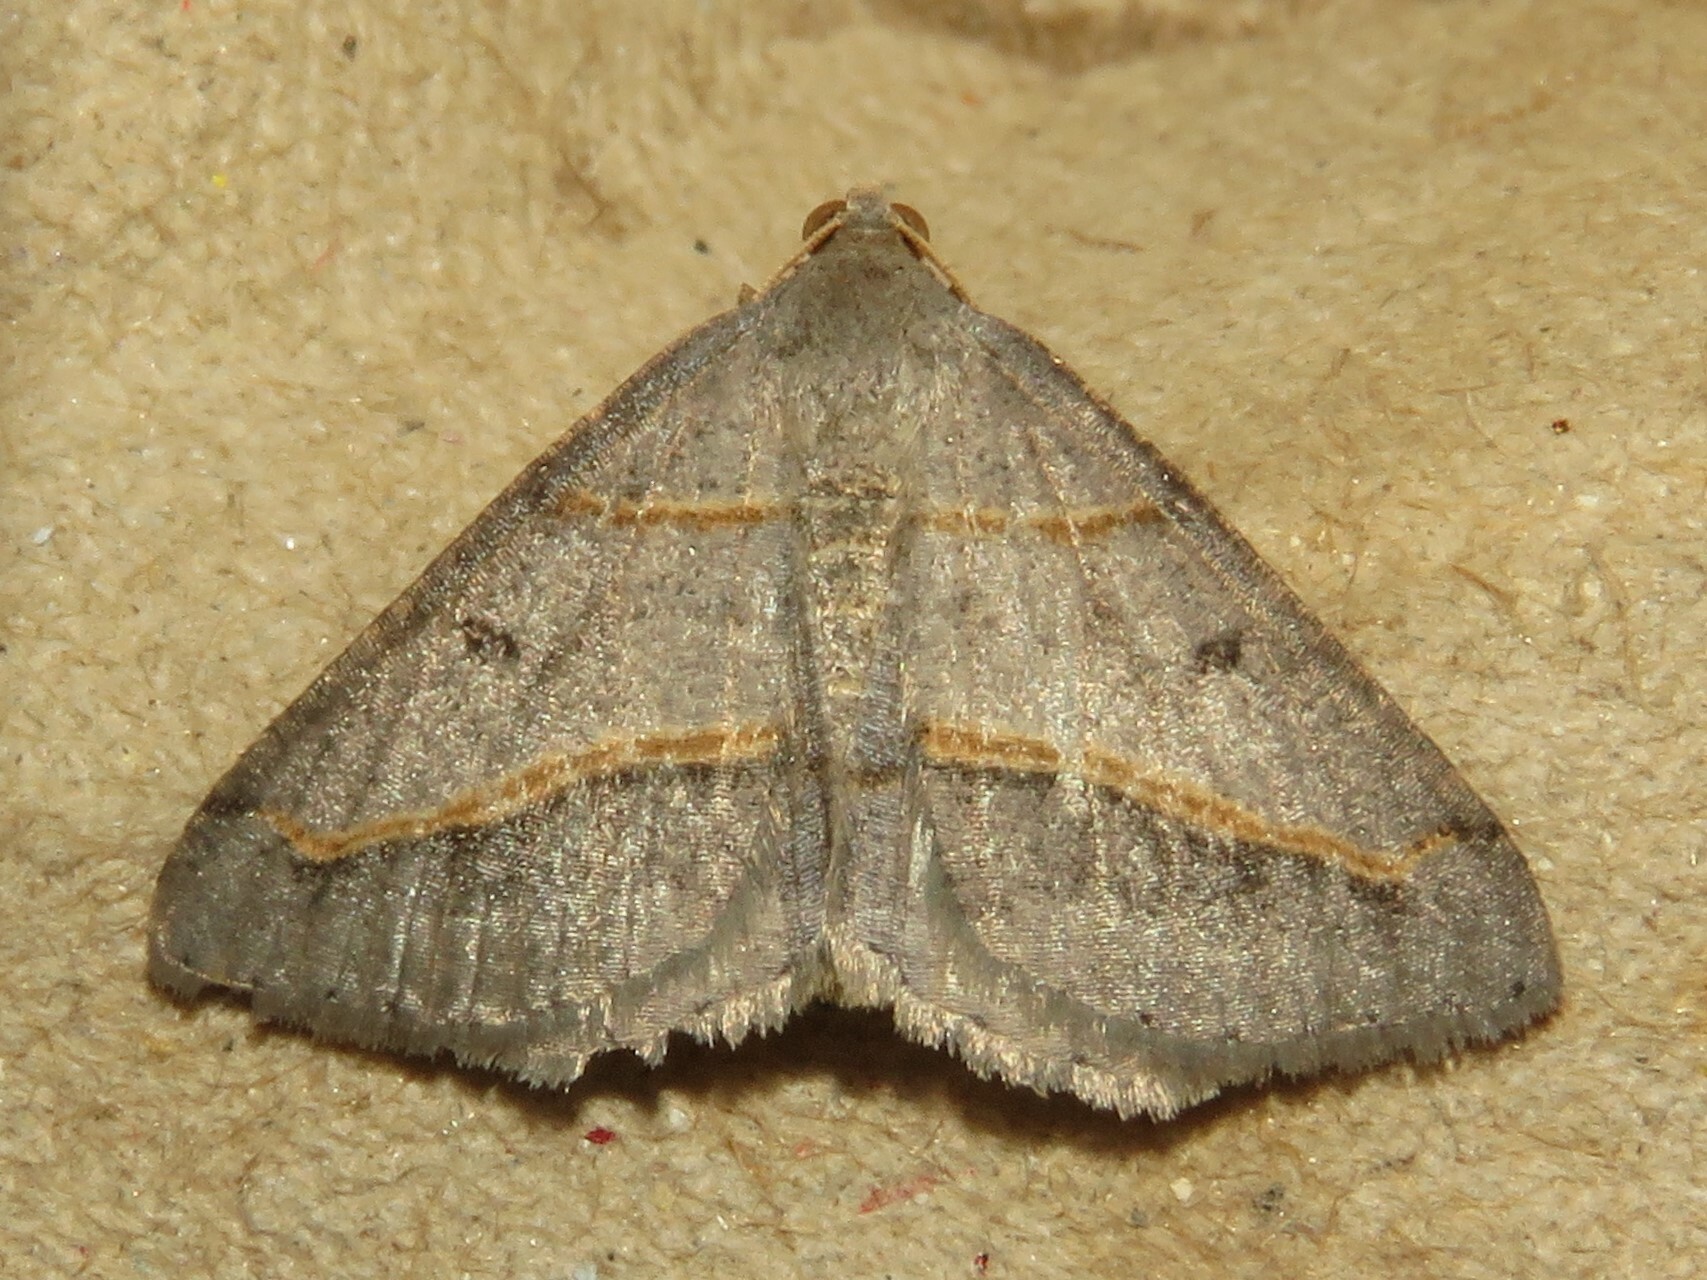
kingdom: Animalia
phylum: Arthropoda
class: Insecta
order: Lepidoptera
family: Geometridae
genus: Digrammia
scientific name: Digrammia mellistrigata
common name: Yellow-lined angle
